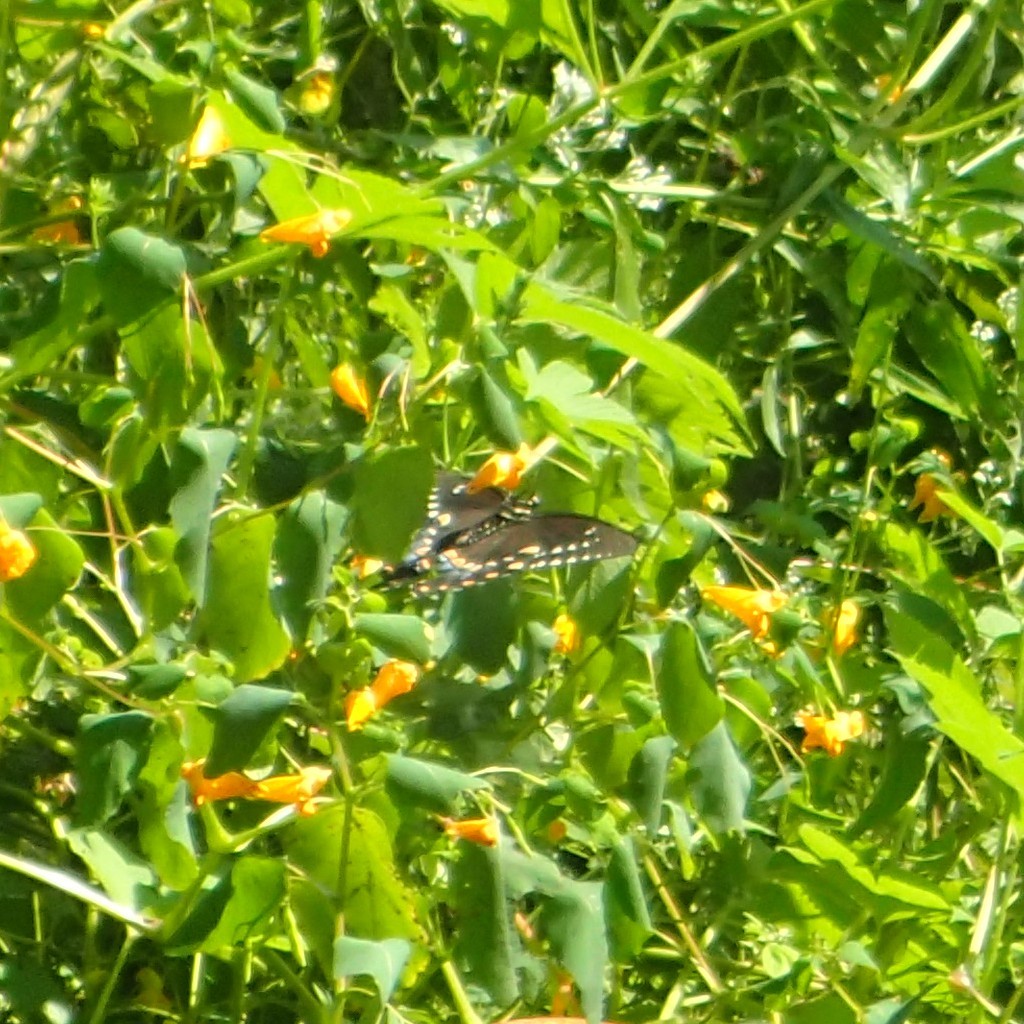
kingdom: Animalia
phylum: Arthropoda
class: Insecta
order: Lepidoptera
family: Papilionidae
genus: Papilio
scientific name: Papilio troilus
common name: Spicebush swallowtail
